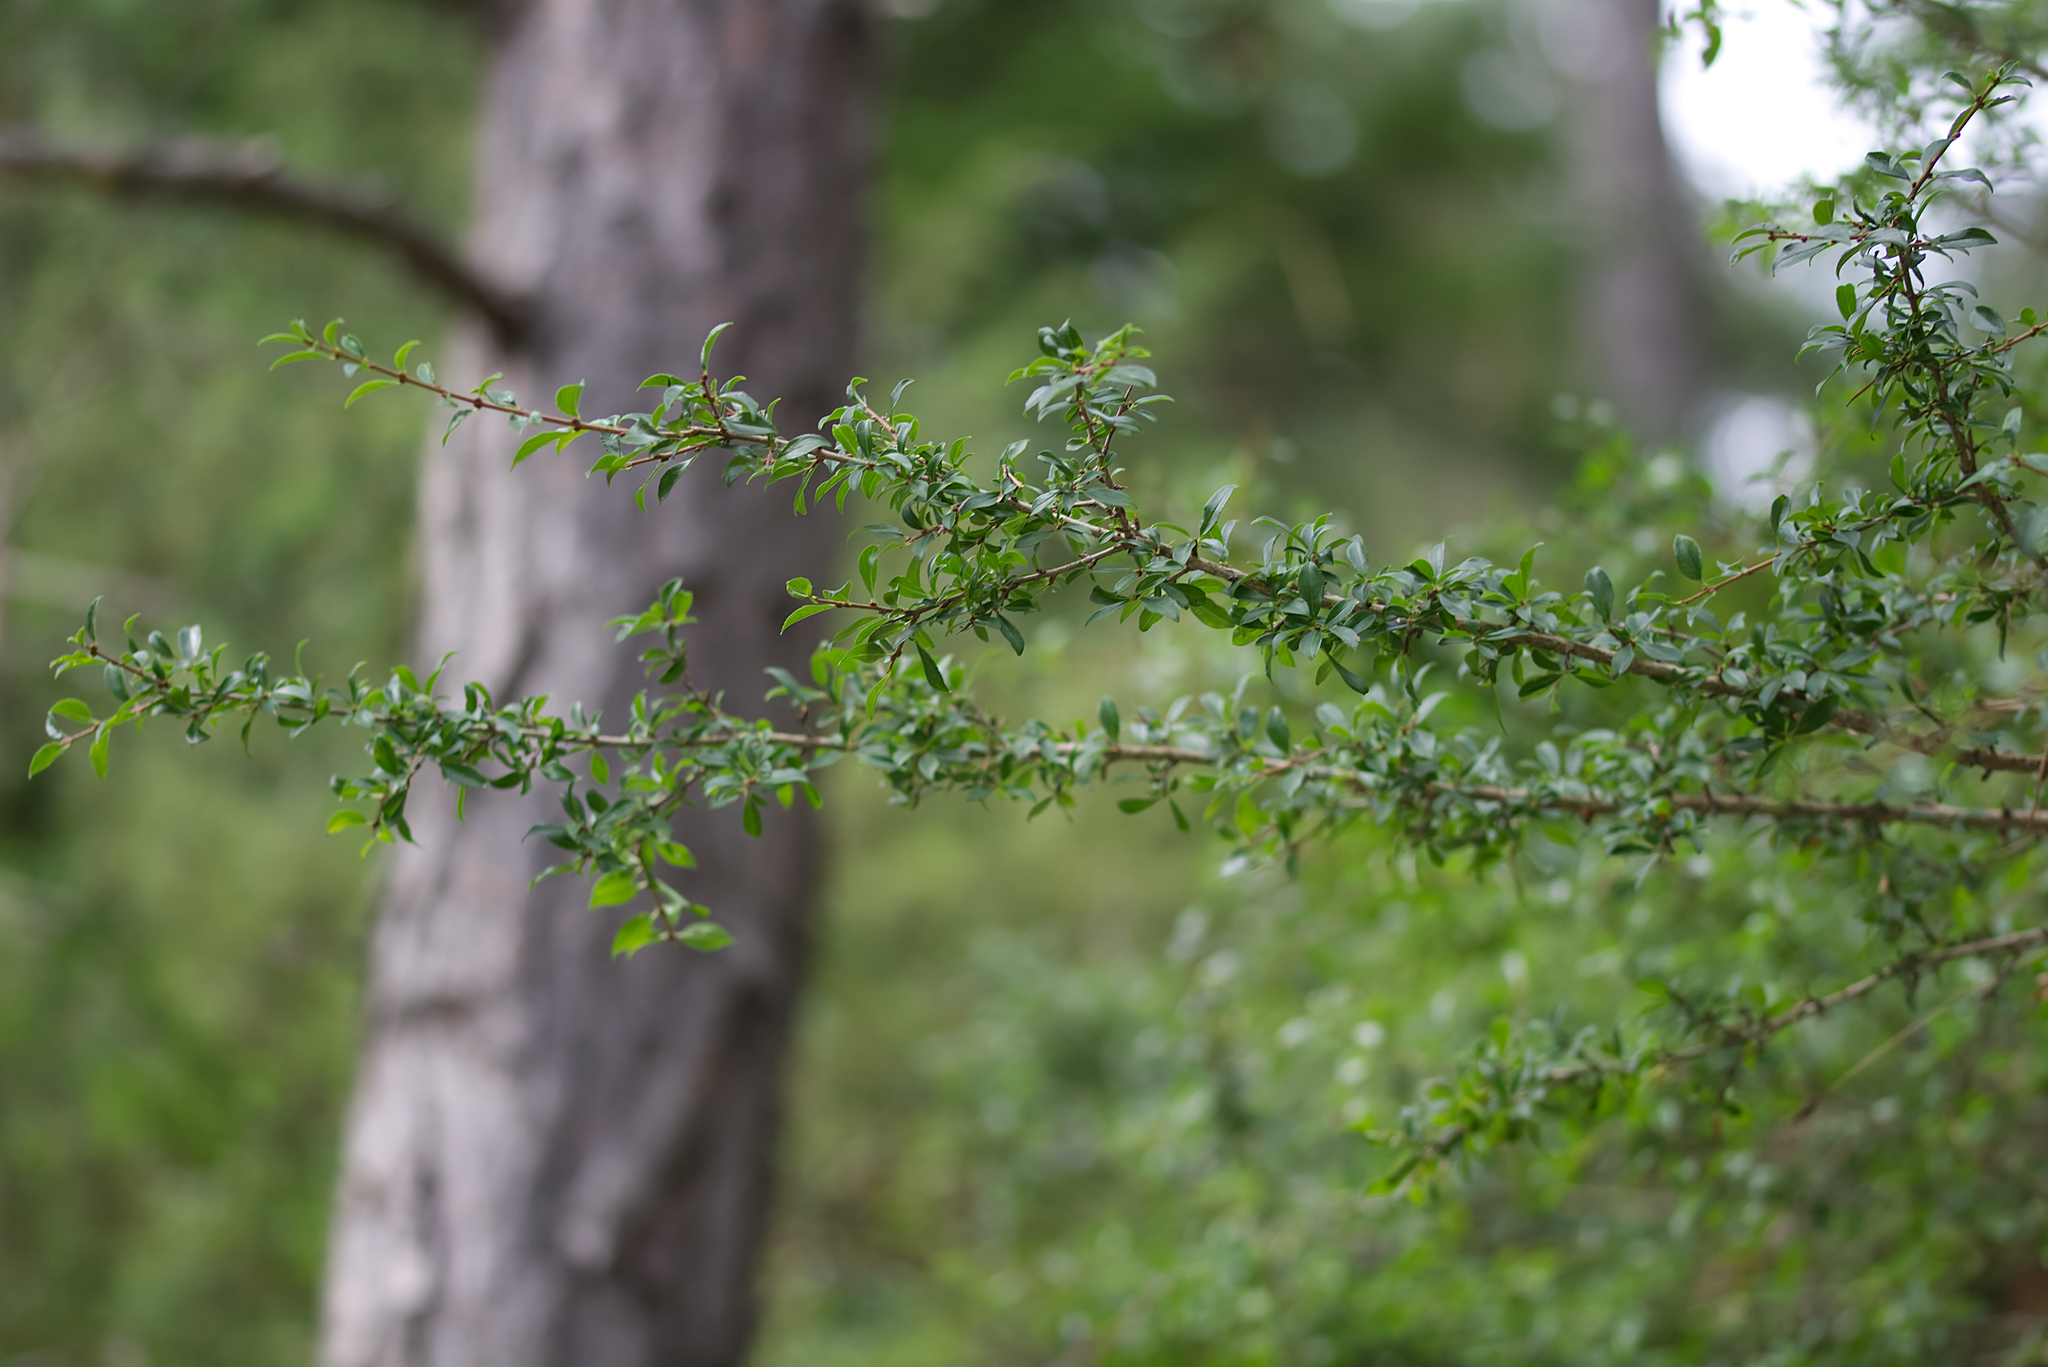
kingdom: Plantae
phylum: Tracheophyta
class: Magnoliopsida
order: Rosales
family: Rhamnaceae
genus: Rhamnus
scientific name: Rhamnus saxatilis
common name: Rock buckthorn
